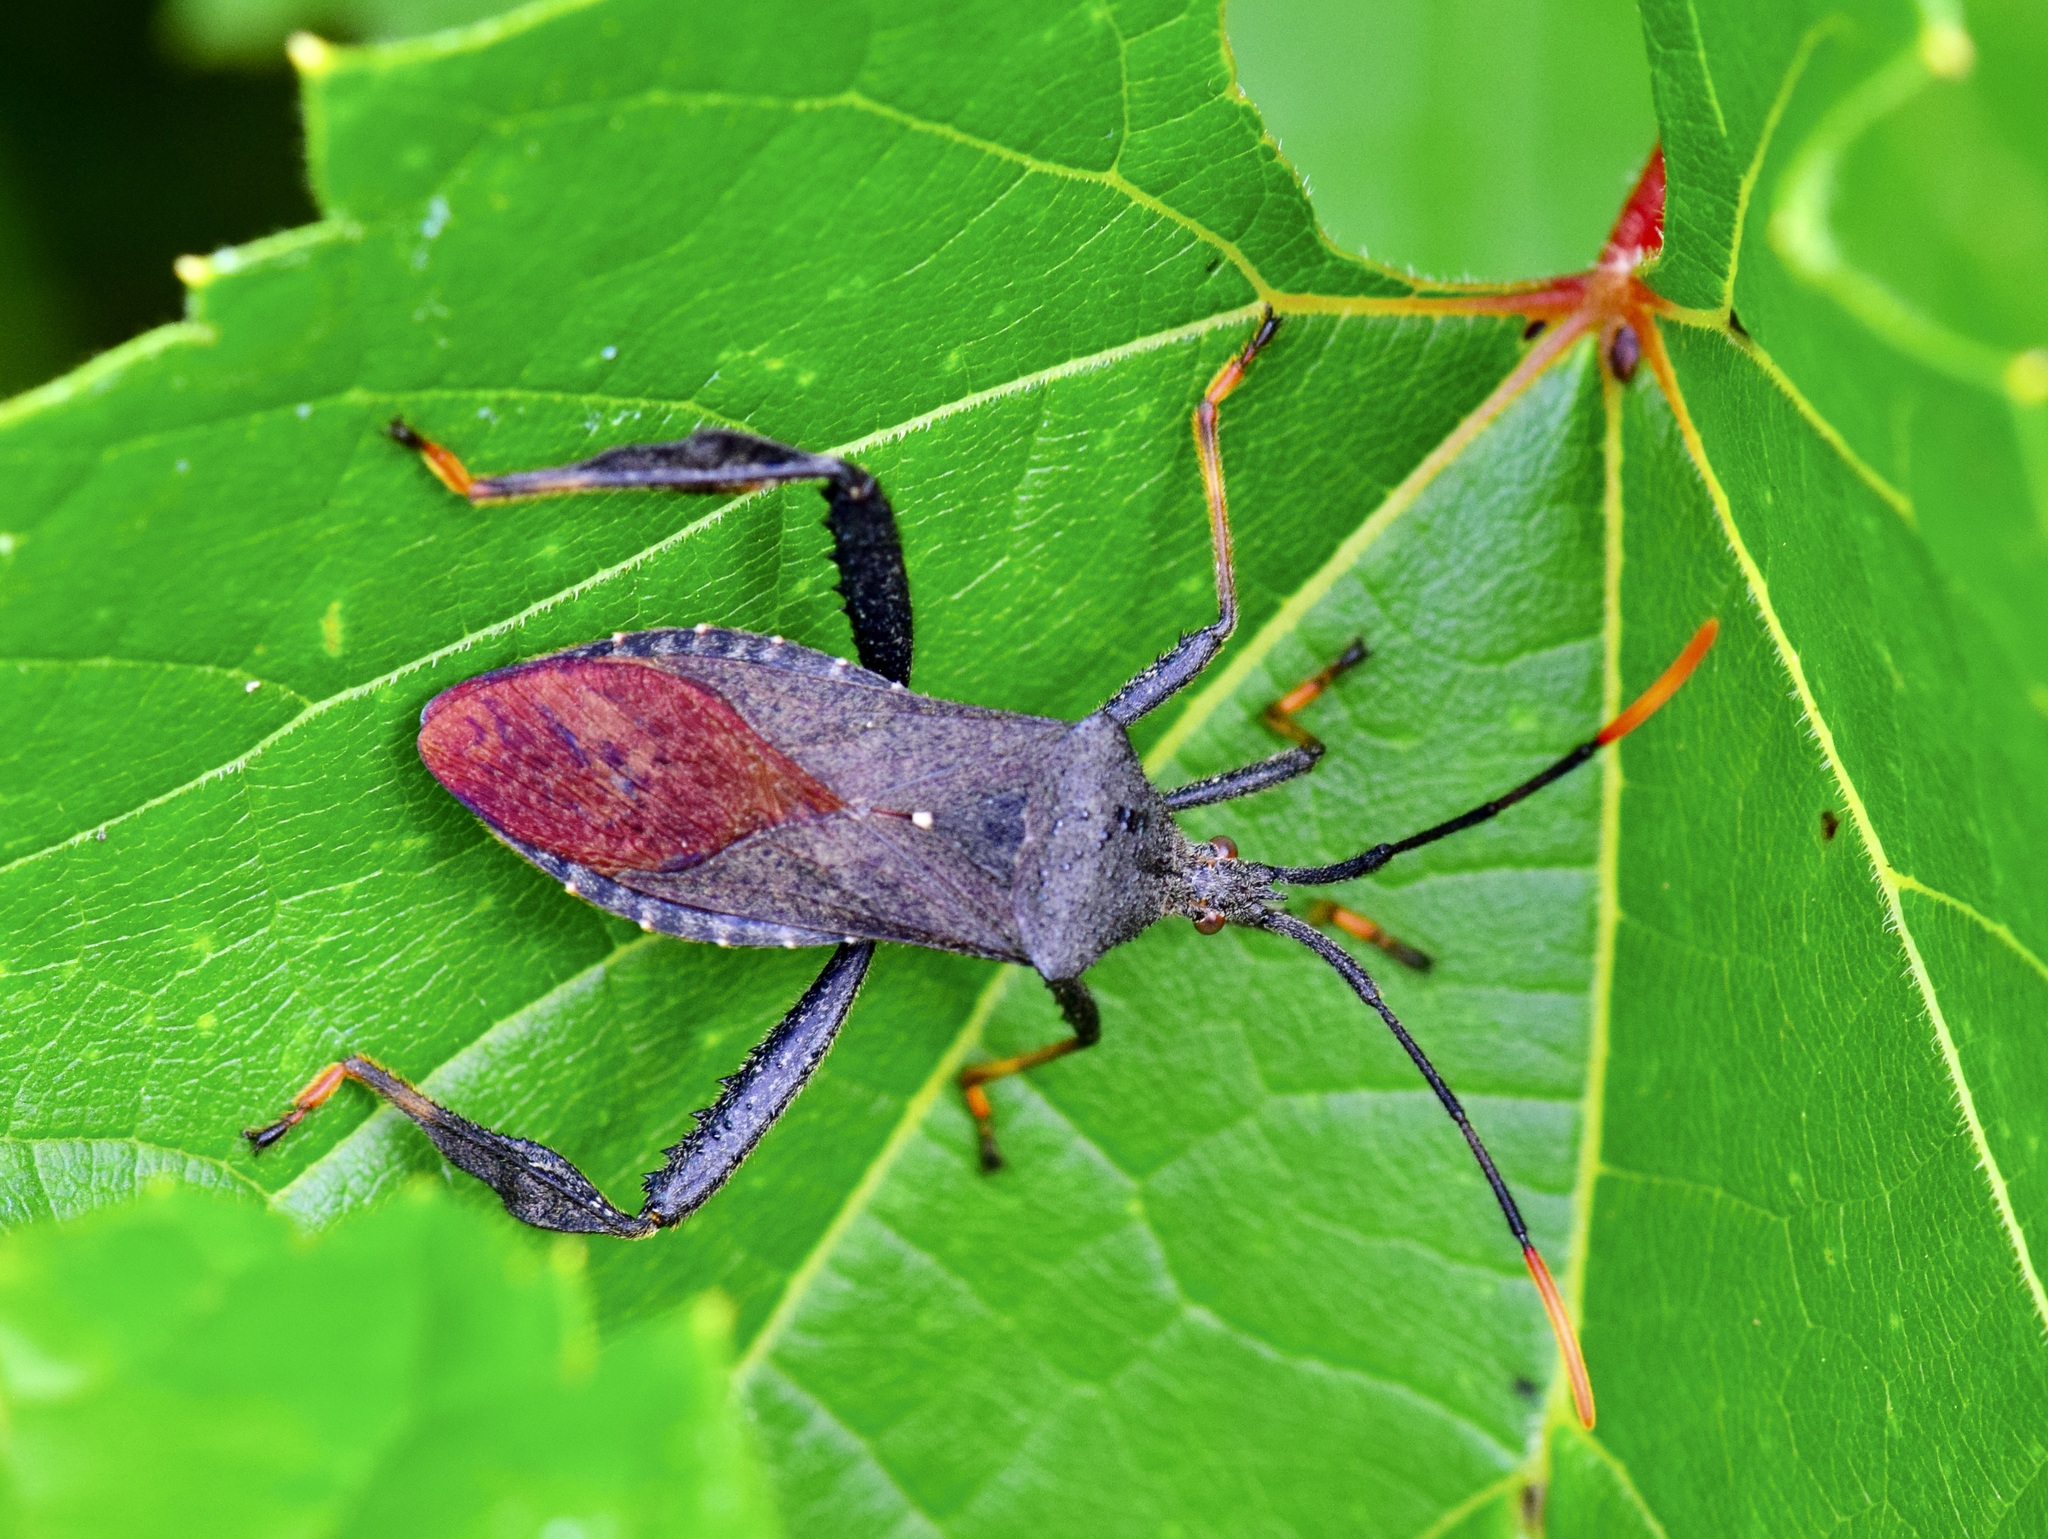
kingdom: Animalia
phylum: Arthropoda
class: Insecta
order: Hemiptera
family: Coreidae
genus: Acanthocephala
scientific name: Acanthocephala terminalis
